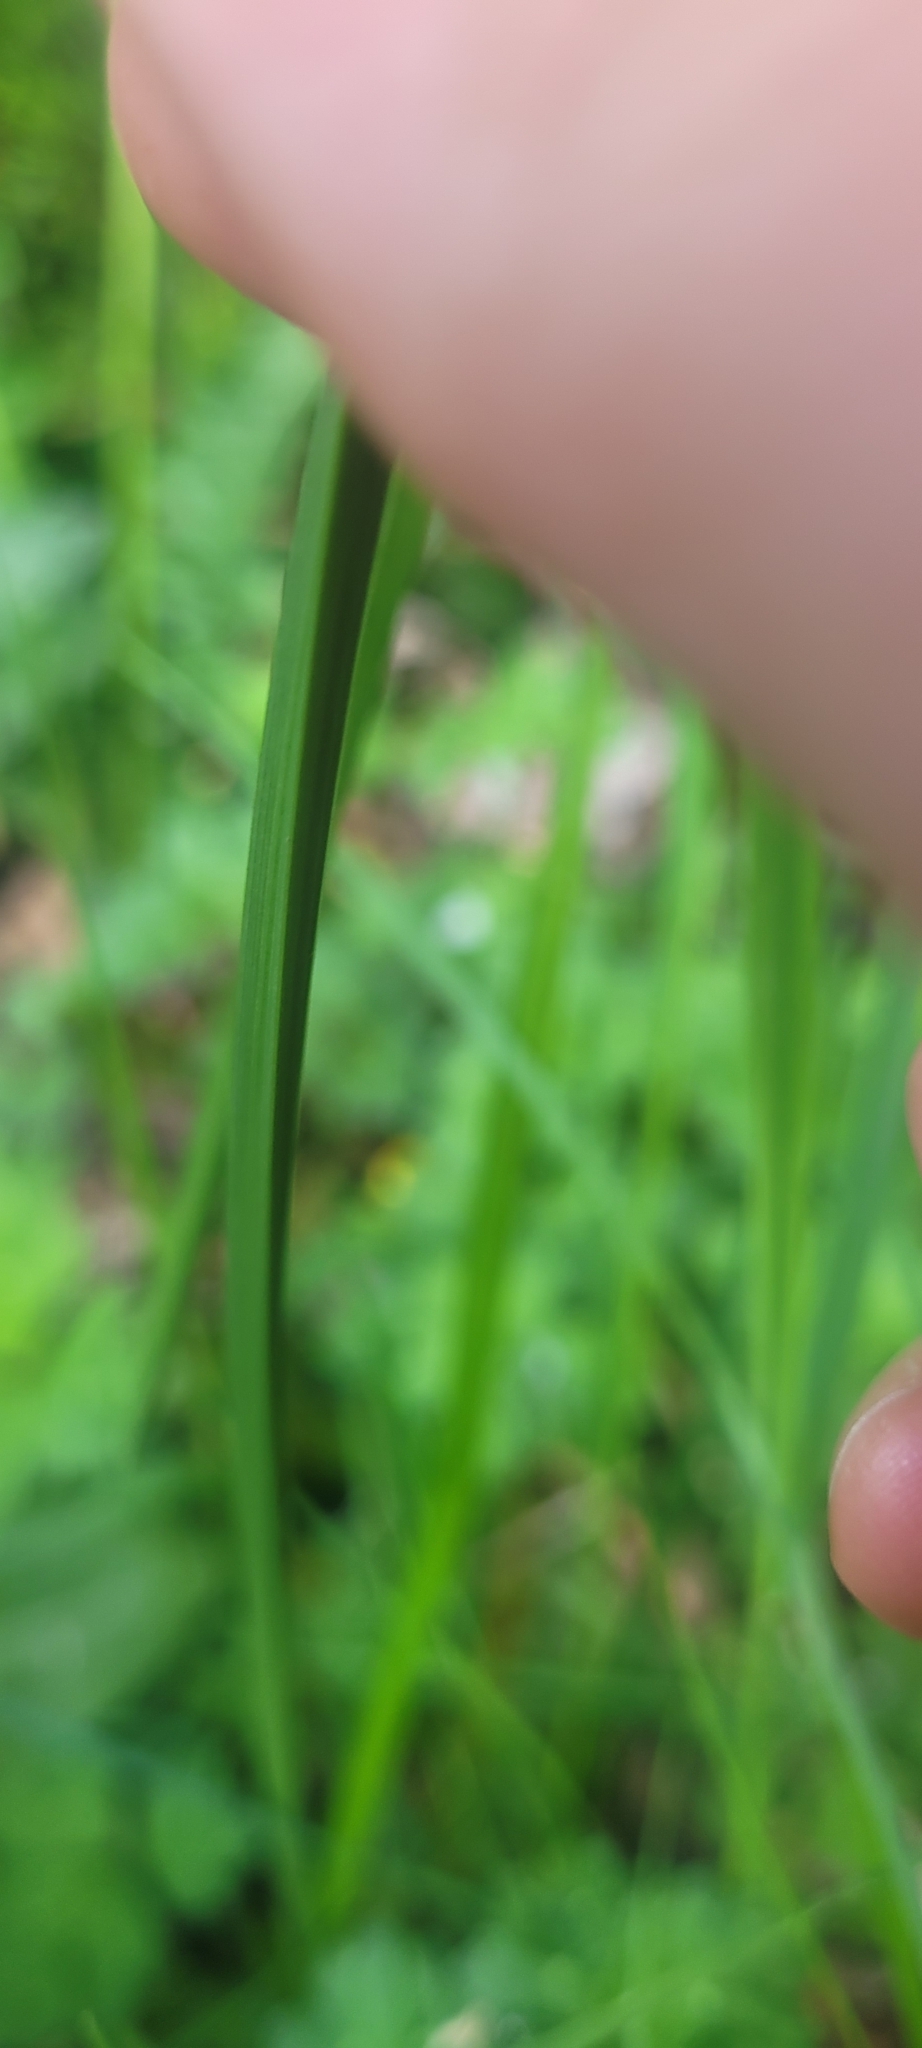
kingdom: Plantae
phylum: Tracheophyta
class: Liliopsida
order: Poales
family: Cyperaceae
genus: Carex
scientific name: Carex obnupta
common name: Slough sedge
